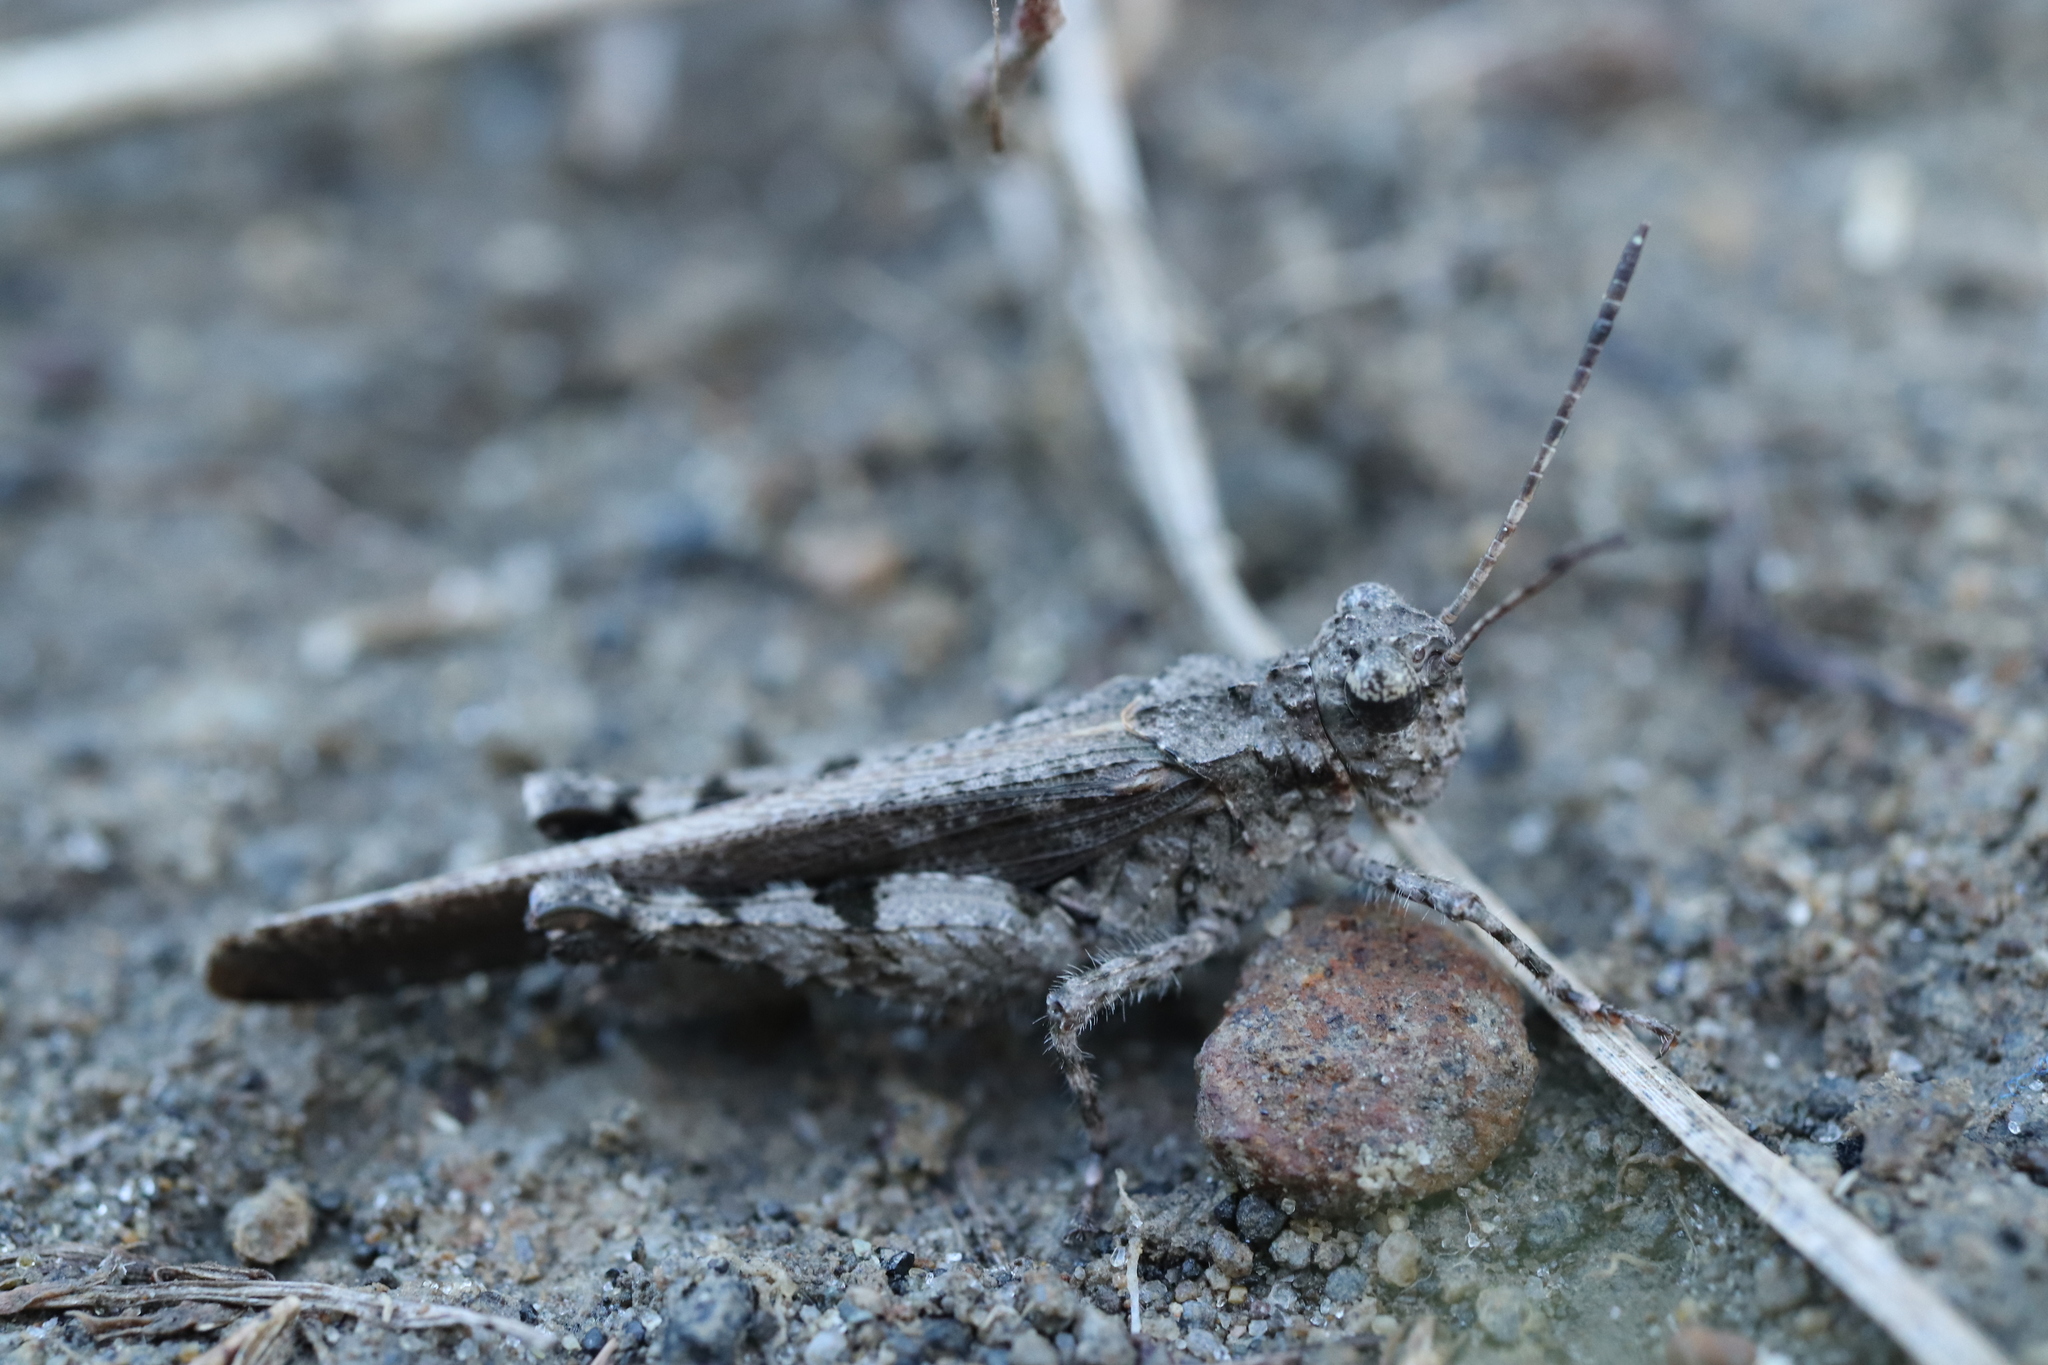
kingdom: Animalia
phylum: Arthropoda
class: Insecta
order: Orthoptera
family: Acrididae
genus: Trilophidia
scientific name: Trilophidia annulata
